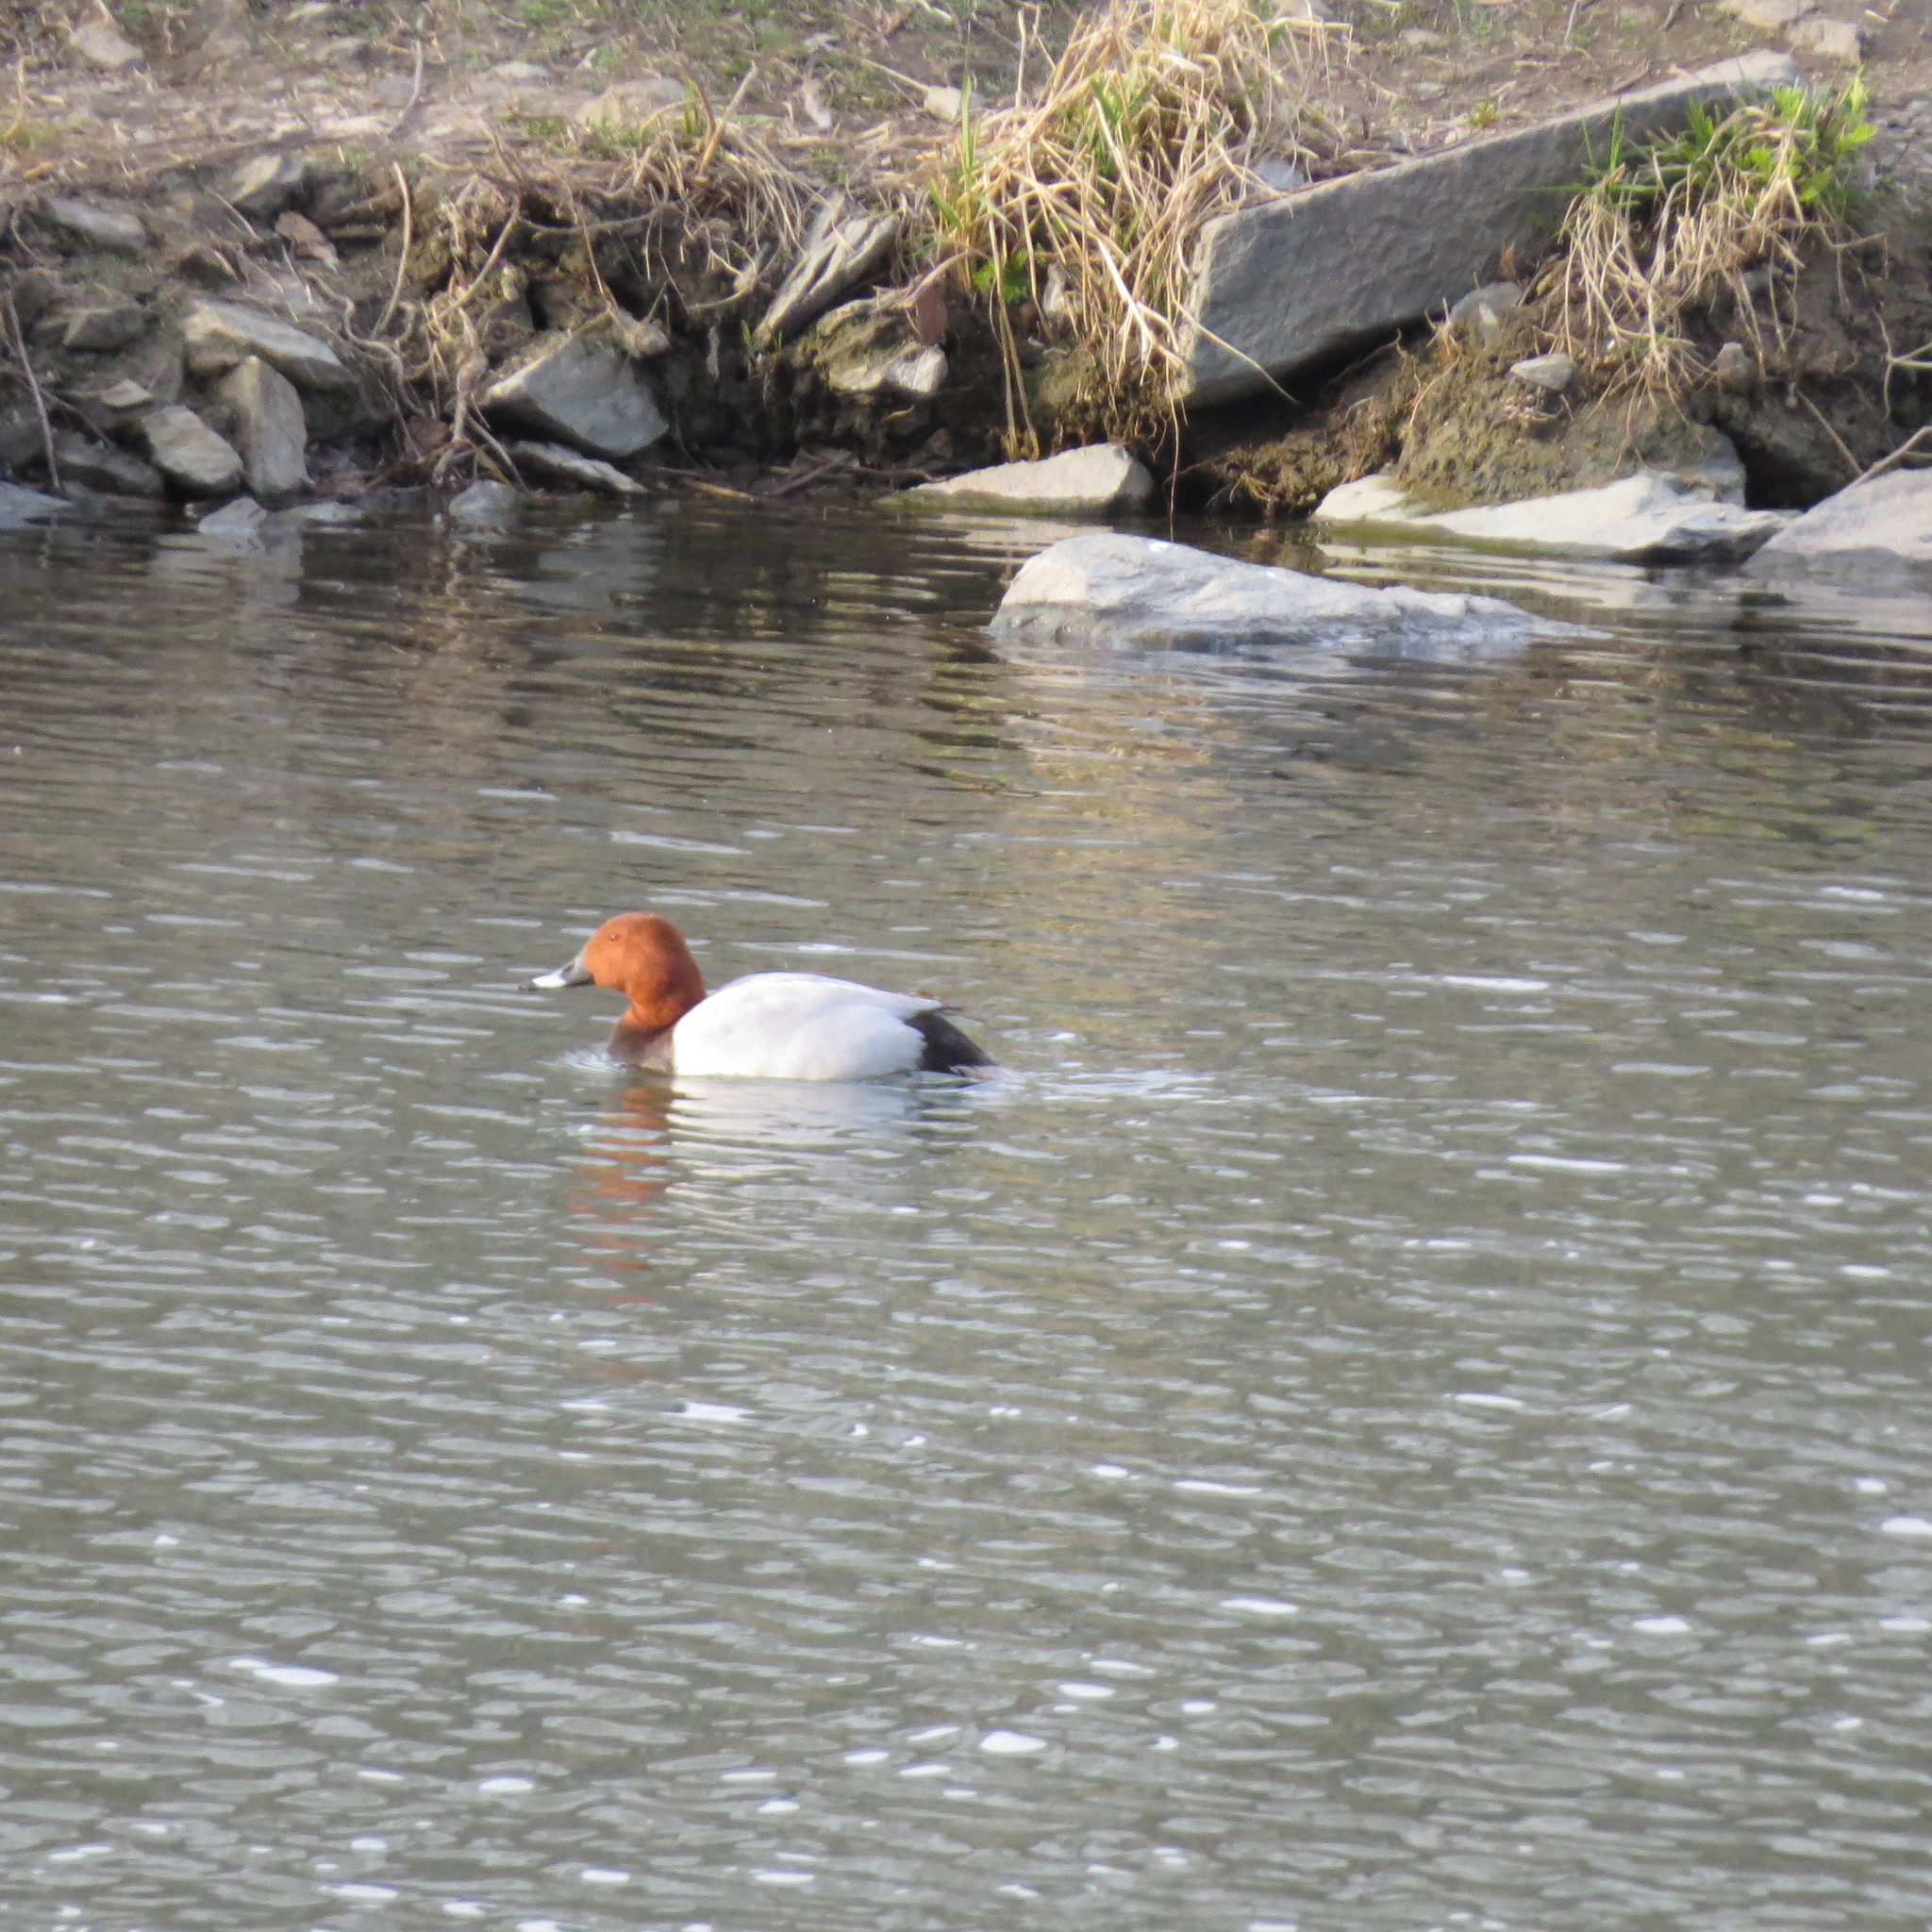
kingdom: Animalia
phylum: Chordata
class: Aves
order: Anseriformes
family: Anatidae
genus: Aythya
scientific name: Aythya ferina
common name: Common pochard
